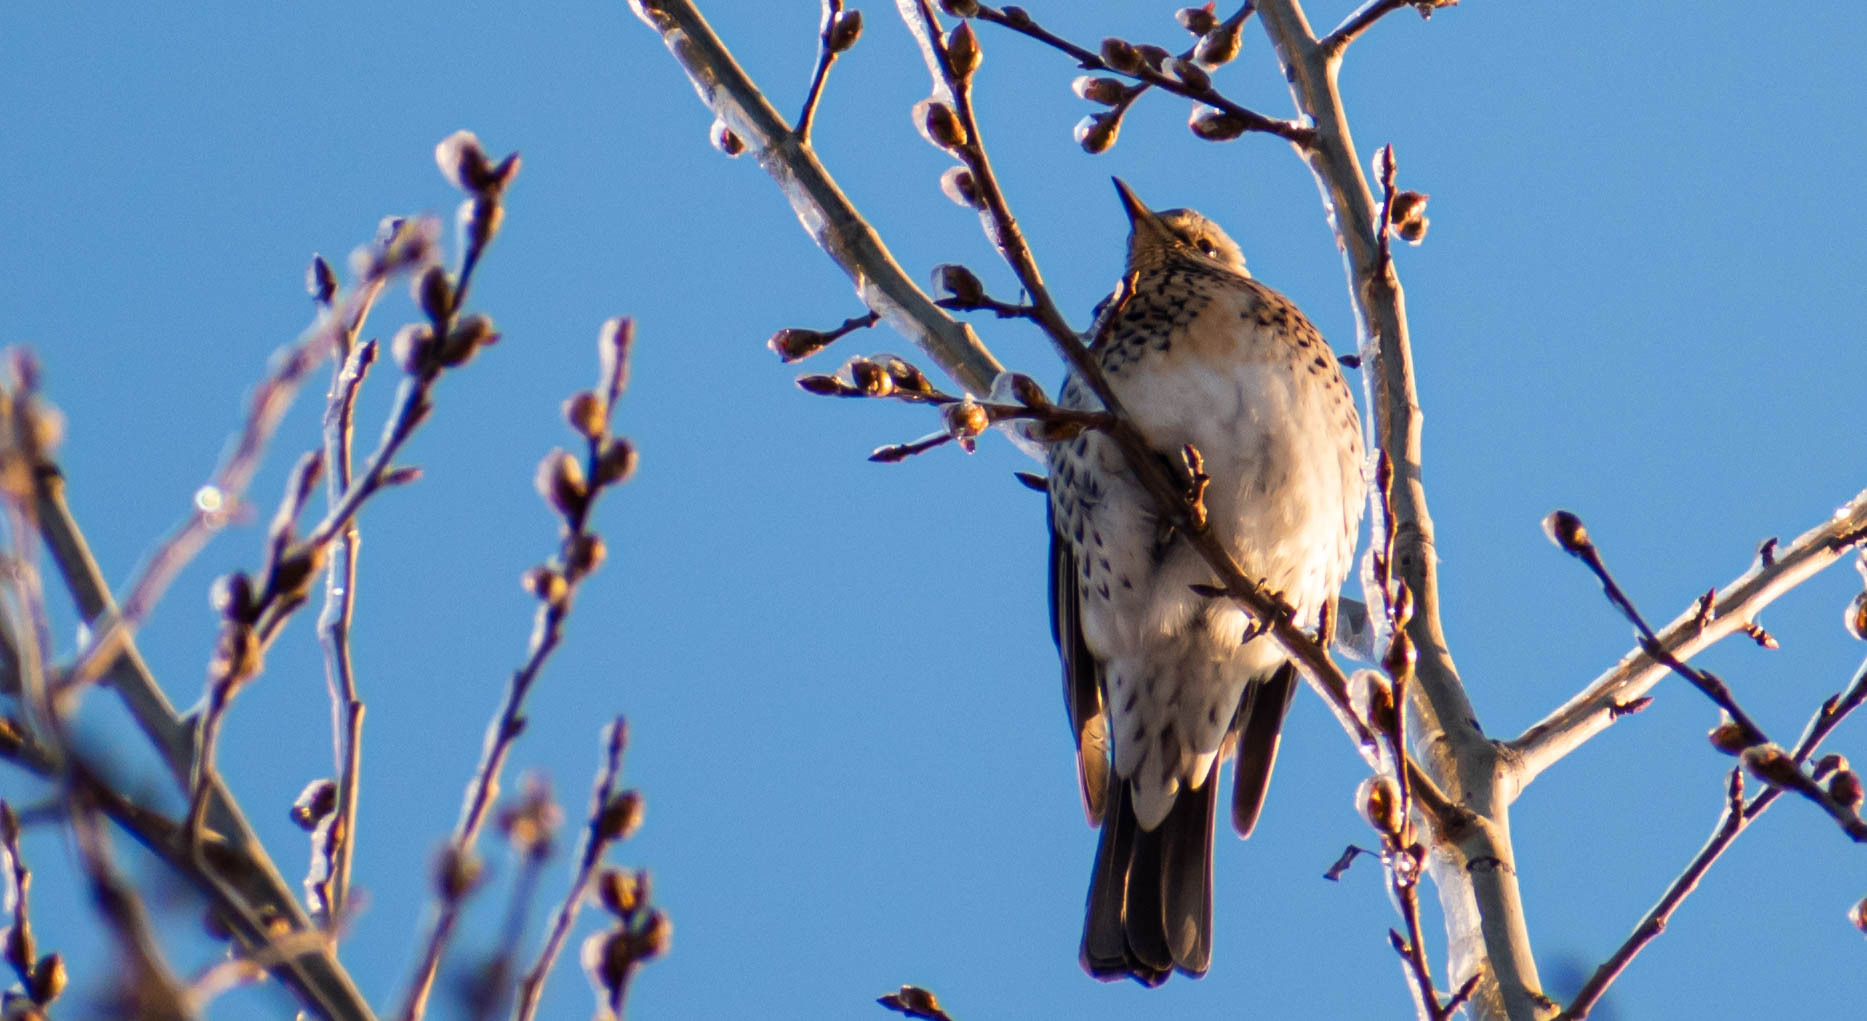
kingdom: Animalia
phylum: Chordata
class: Aves
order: Passeriformes
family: Turdidae
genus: Turdus
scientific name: Turdus pilaris
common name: Fieldfare
